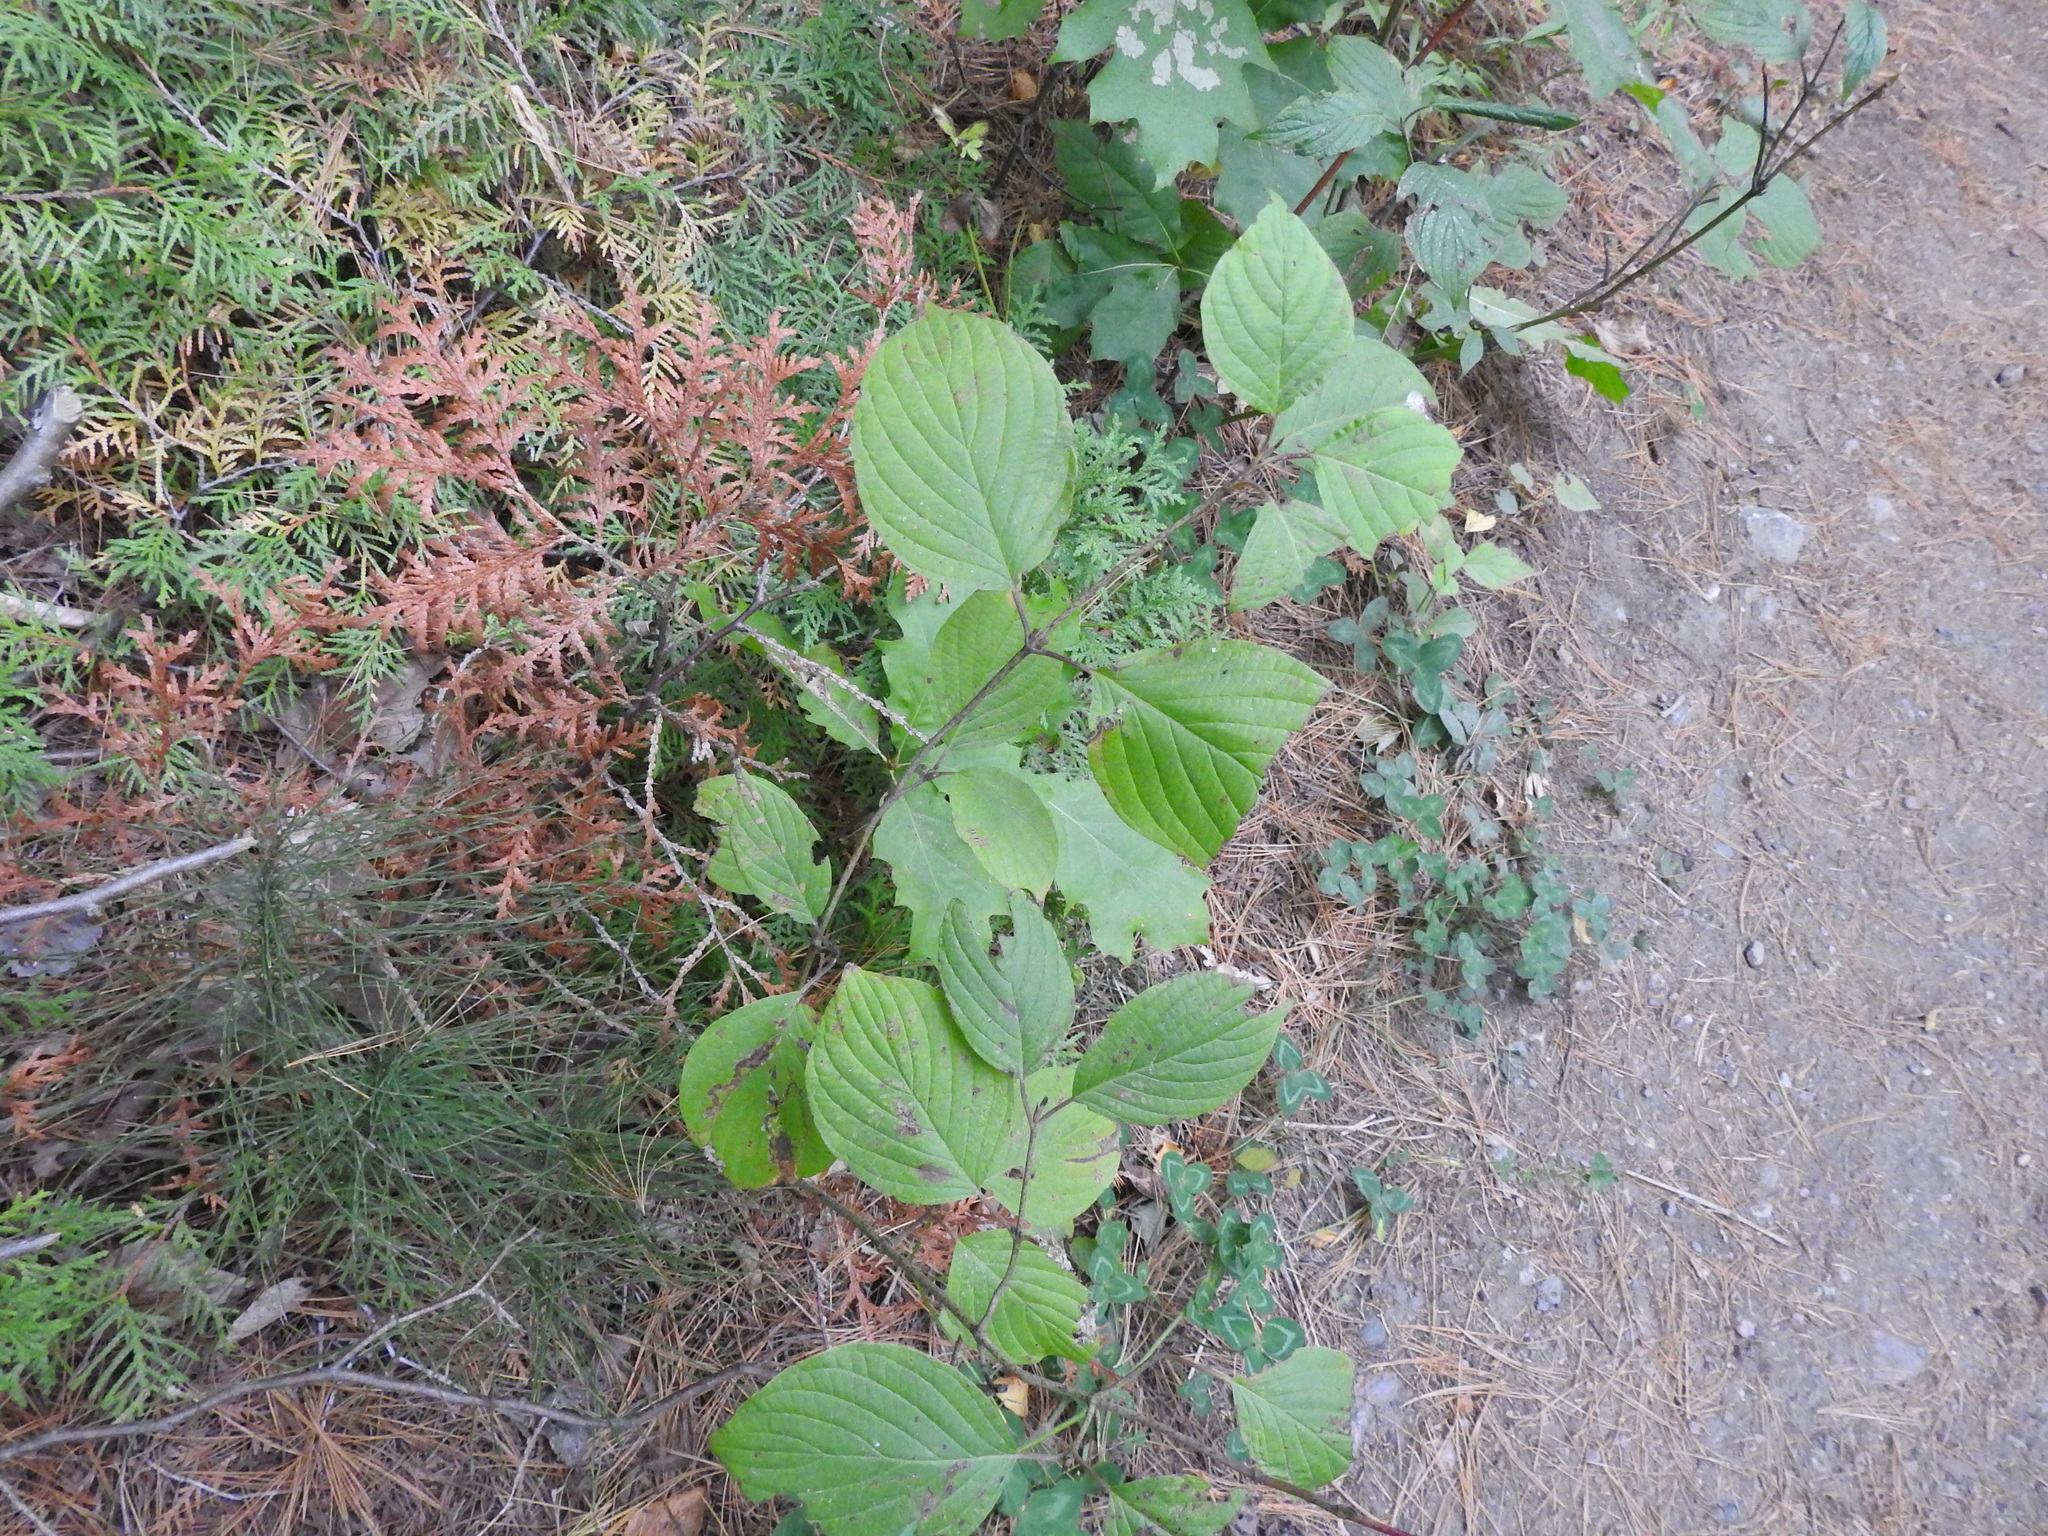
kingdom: Plantae
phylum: Tracheophyta
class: Magnoliopsida
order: Cornales
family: Cornaceae
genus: Cornus
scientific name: Cornus rugosa
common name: Round-leaf dogwood
